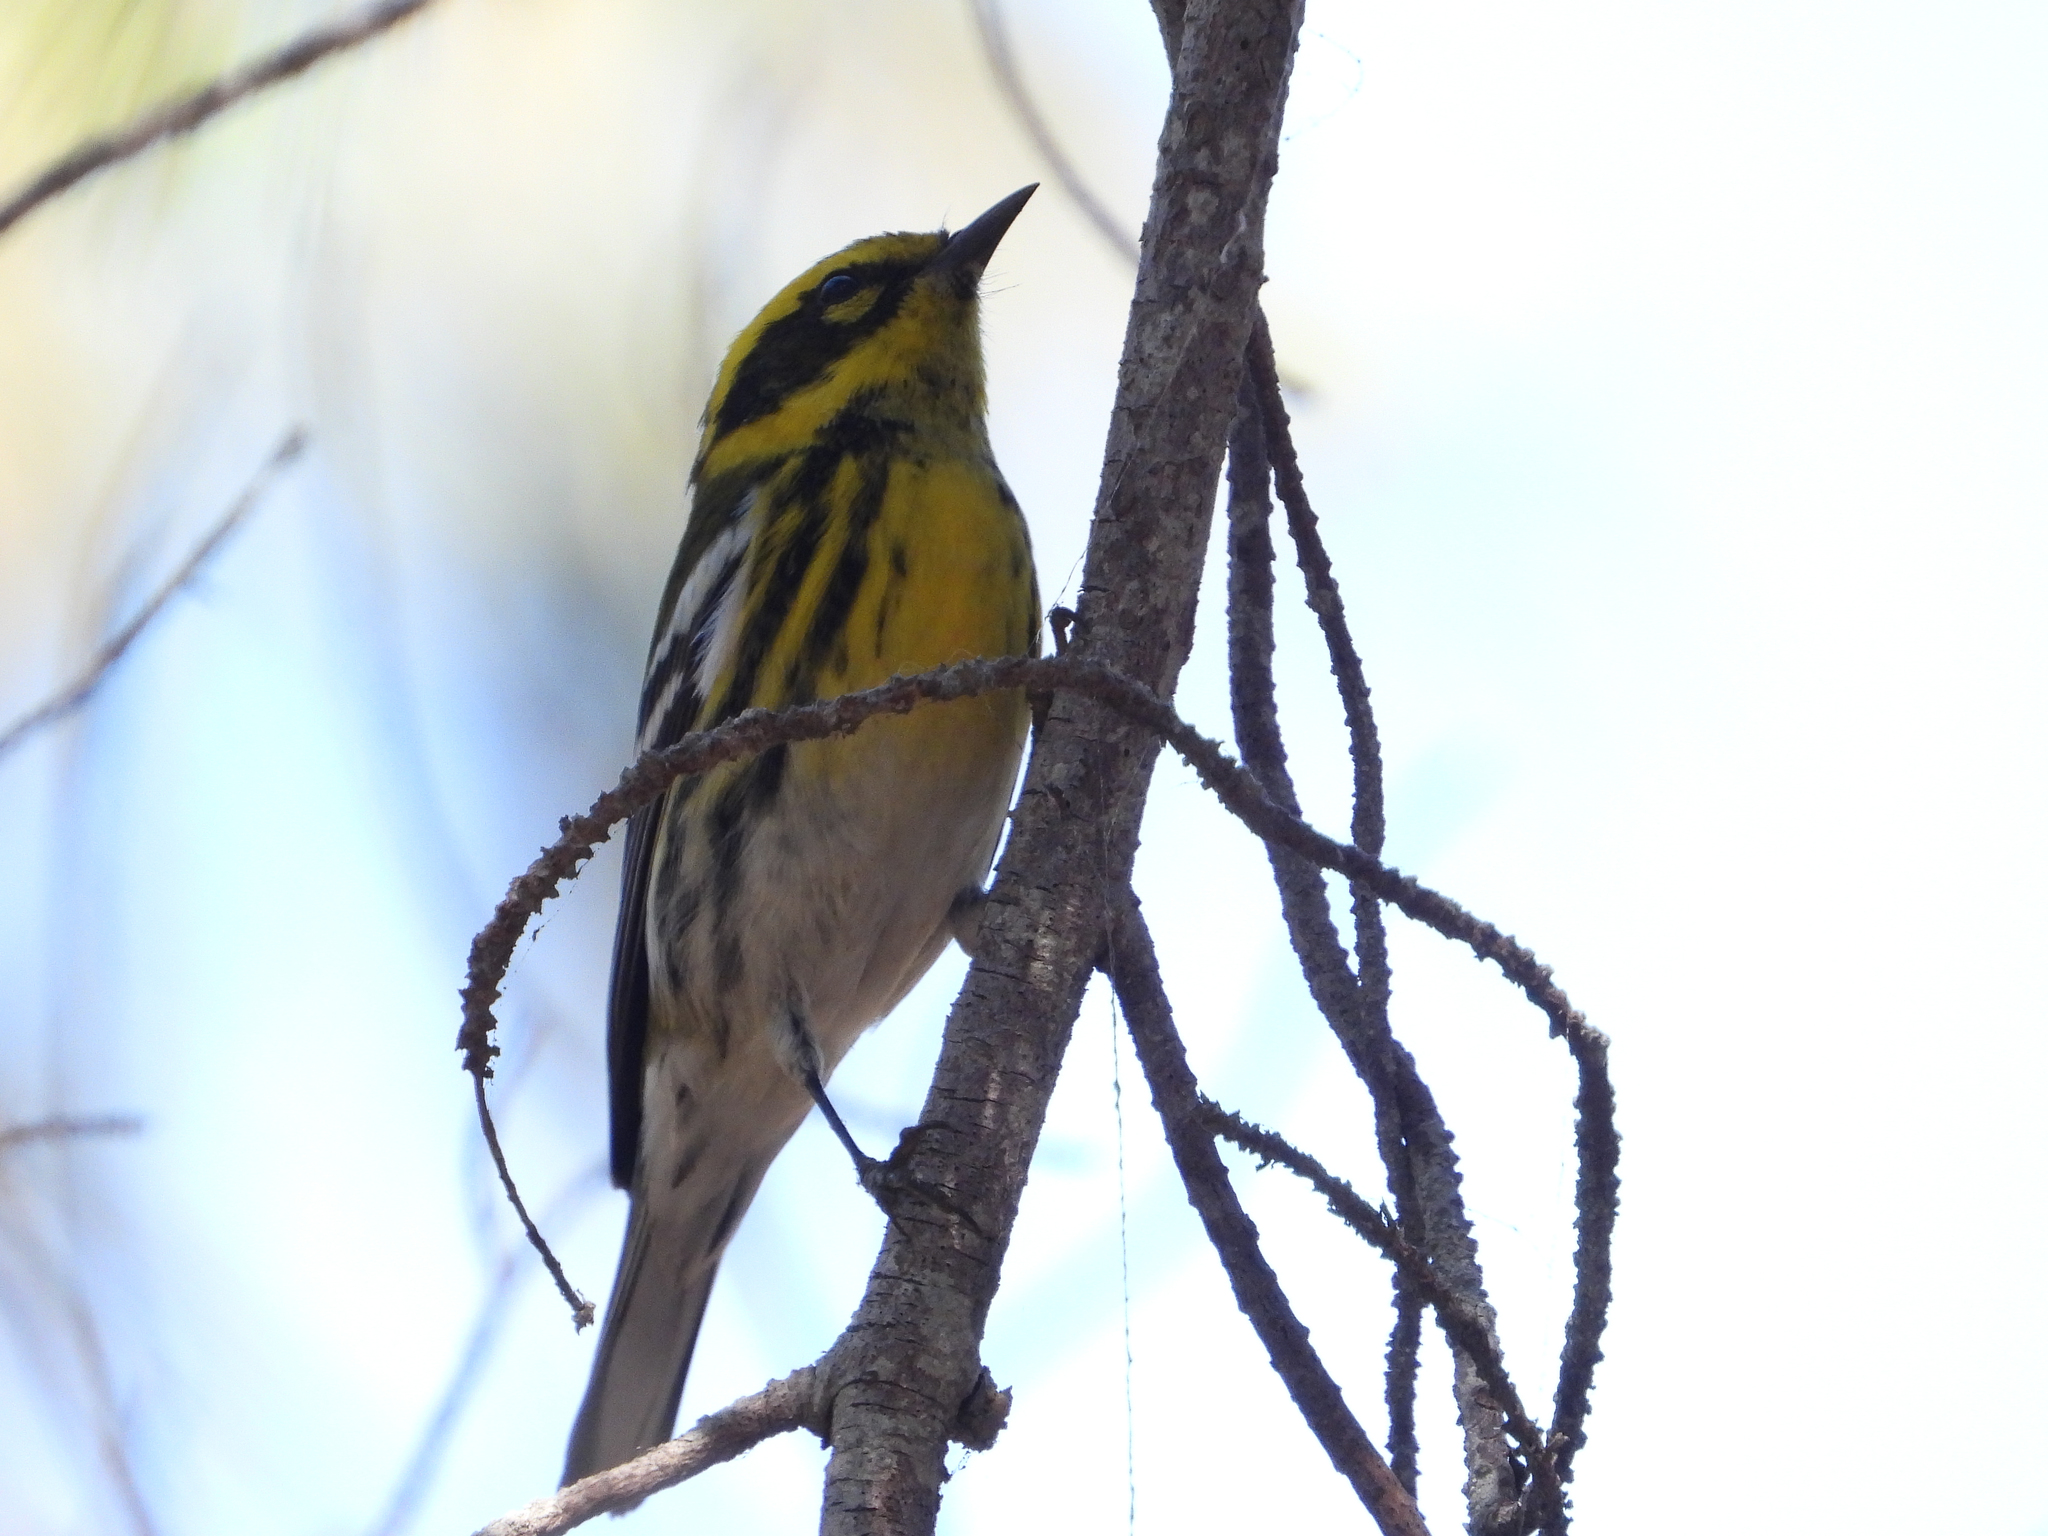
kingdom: Animalia
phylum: Chordata
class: Aves
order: Passeriformes
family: Parulidae
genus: Setophaga
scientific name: Setophaga townsendi
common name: Townsend's warbler
